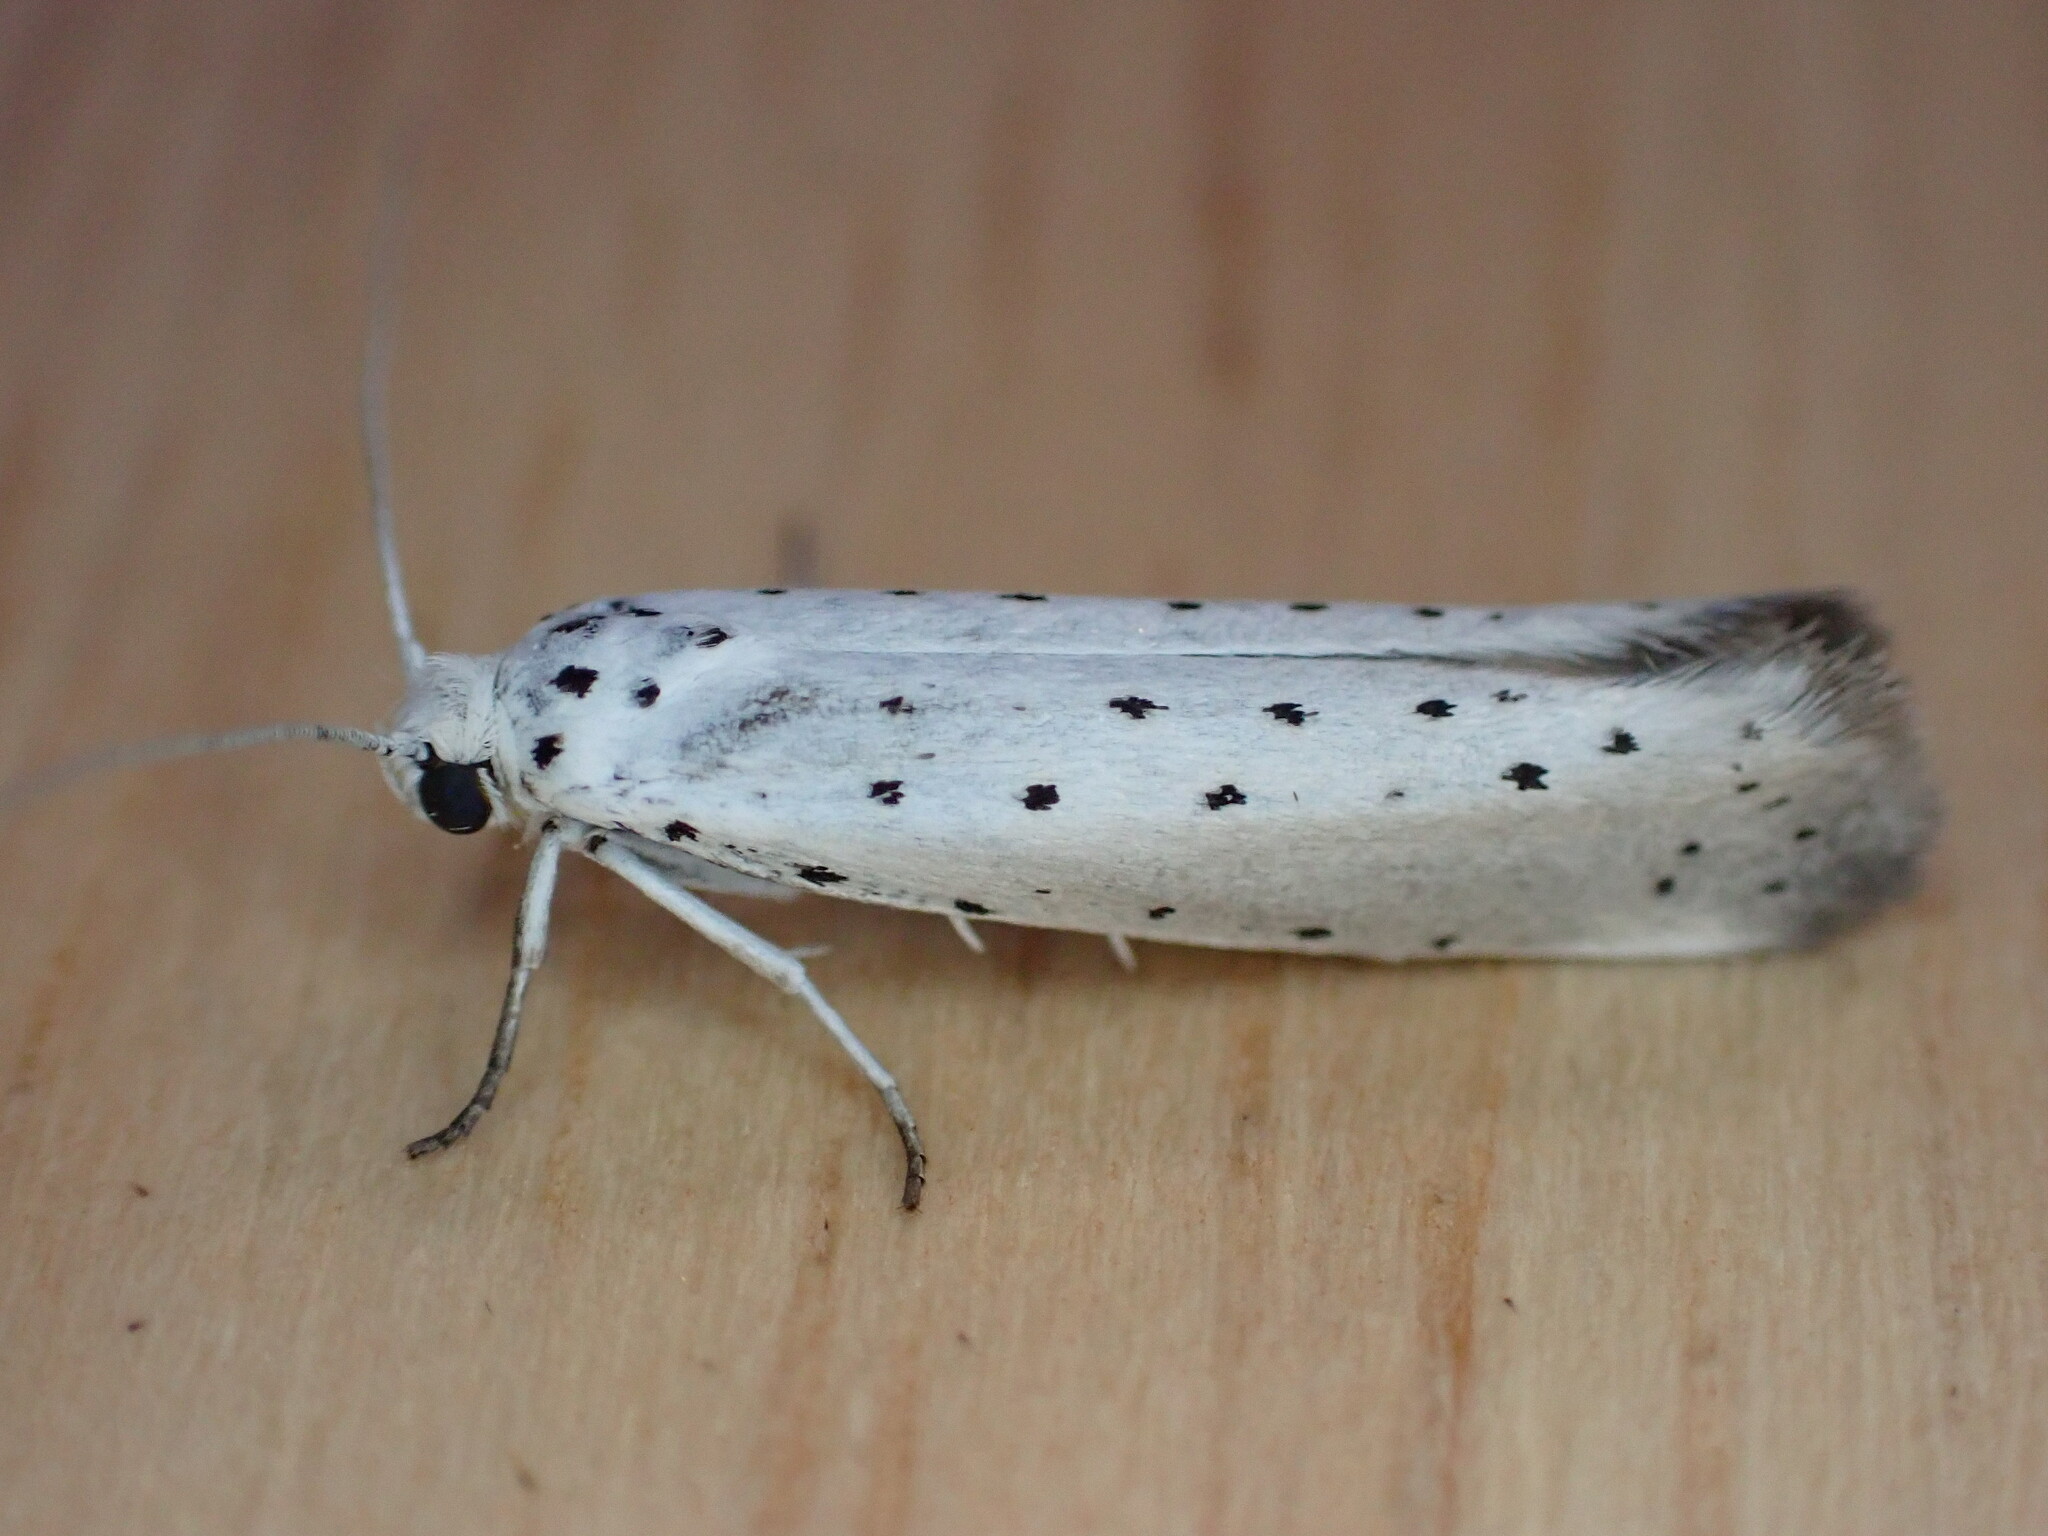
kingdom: Animalia
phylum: Arthropoda
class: Insecta
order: Lepidoptera
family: Yponomeutidae
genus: Yponomeuta
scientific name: Yponomeuta padella
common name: Orchard ermine
